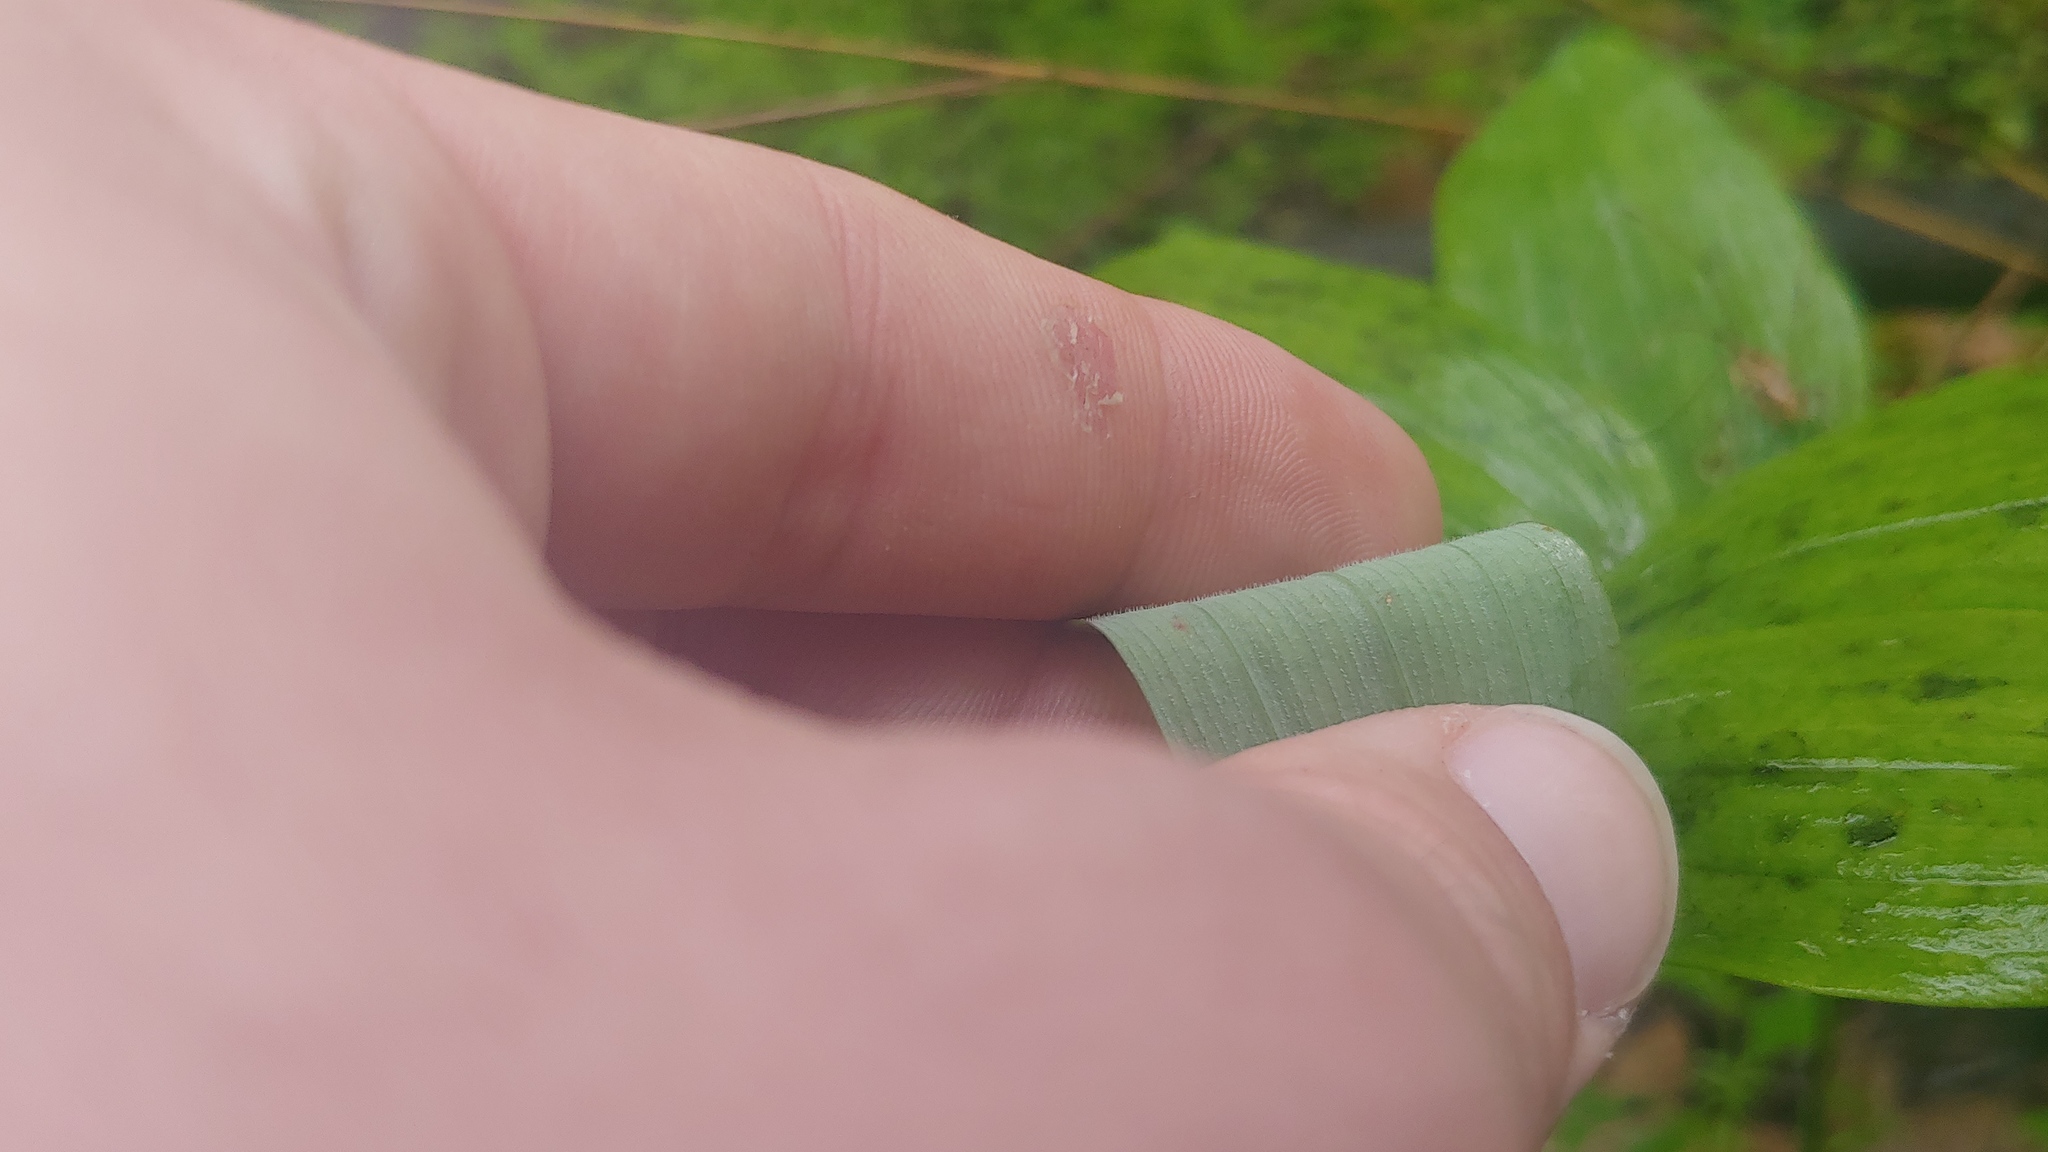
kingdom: Plantae
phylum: Tracheophyta
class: Liliopsida
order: Asparagales
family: Asparagaceae
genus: Polygonatum
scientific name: Polygonatum pubescens
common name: Downy solomon's seal
